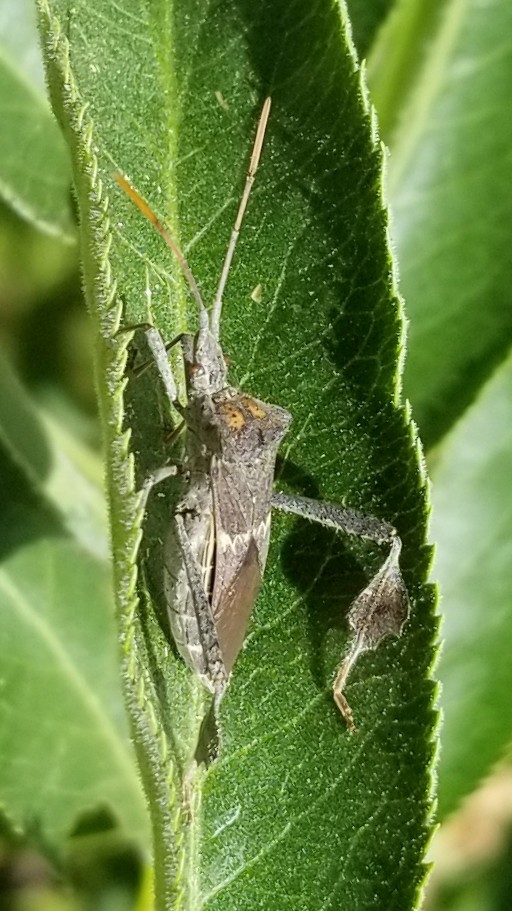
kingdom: Animalia
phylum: Arthropoda
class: Insecta
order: Hemiptera
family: Coreidae
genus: Leptoglossus
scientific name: Leptoglossus zonatus
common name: Large-legged bug
